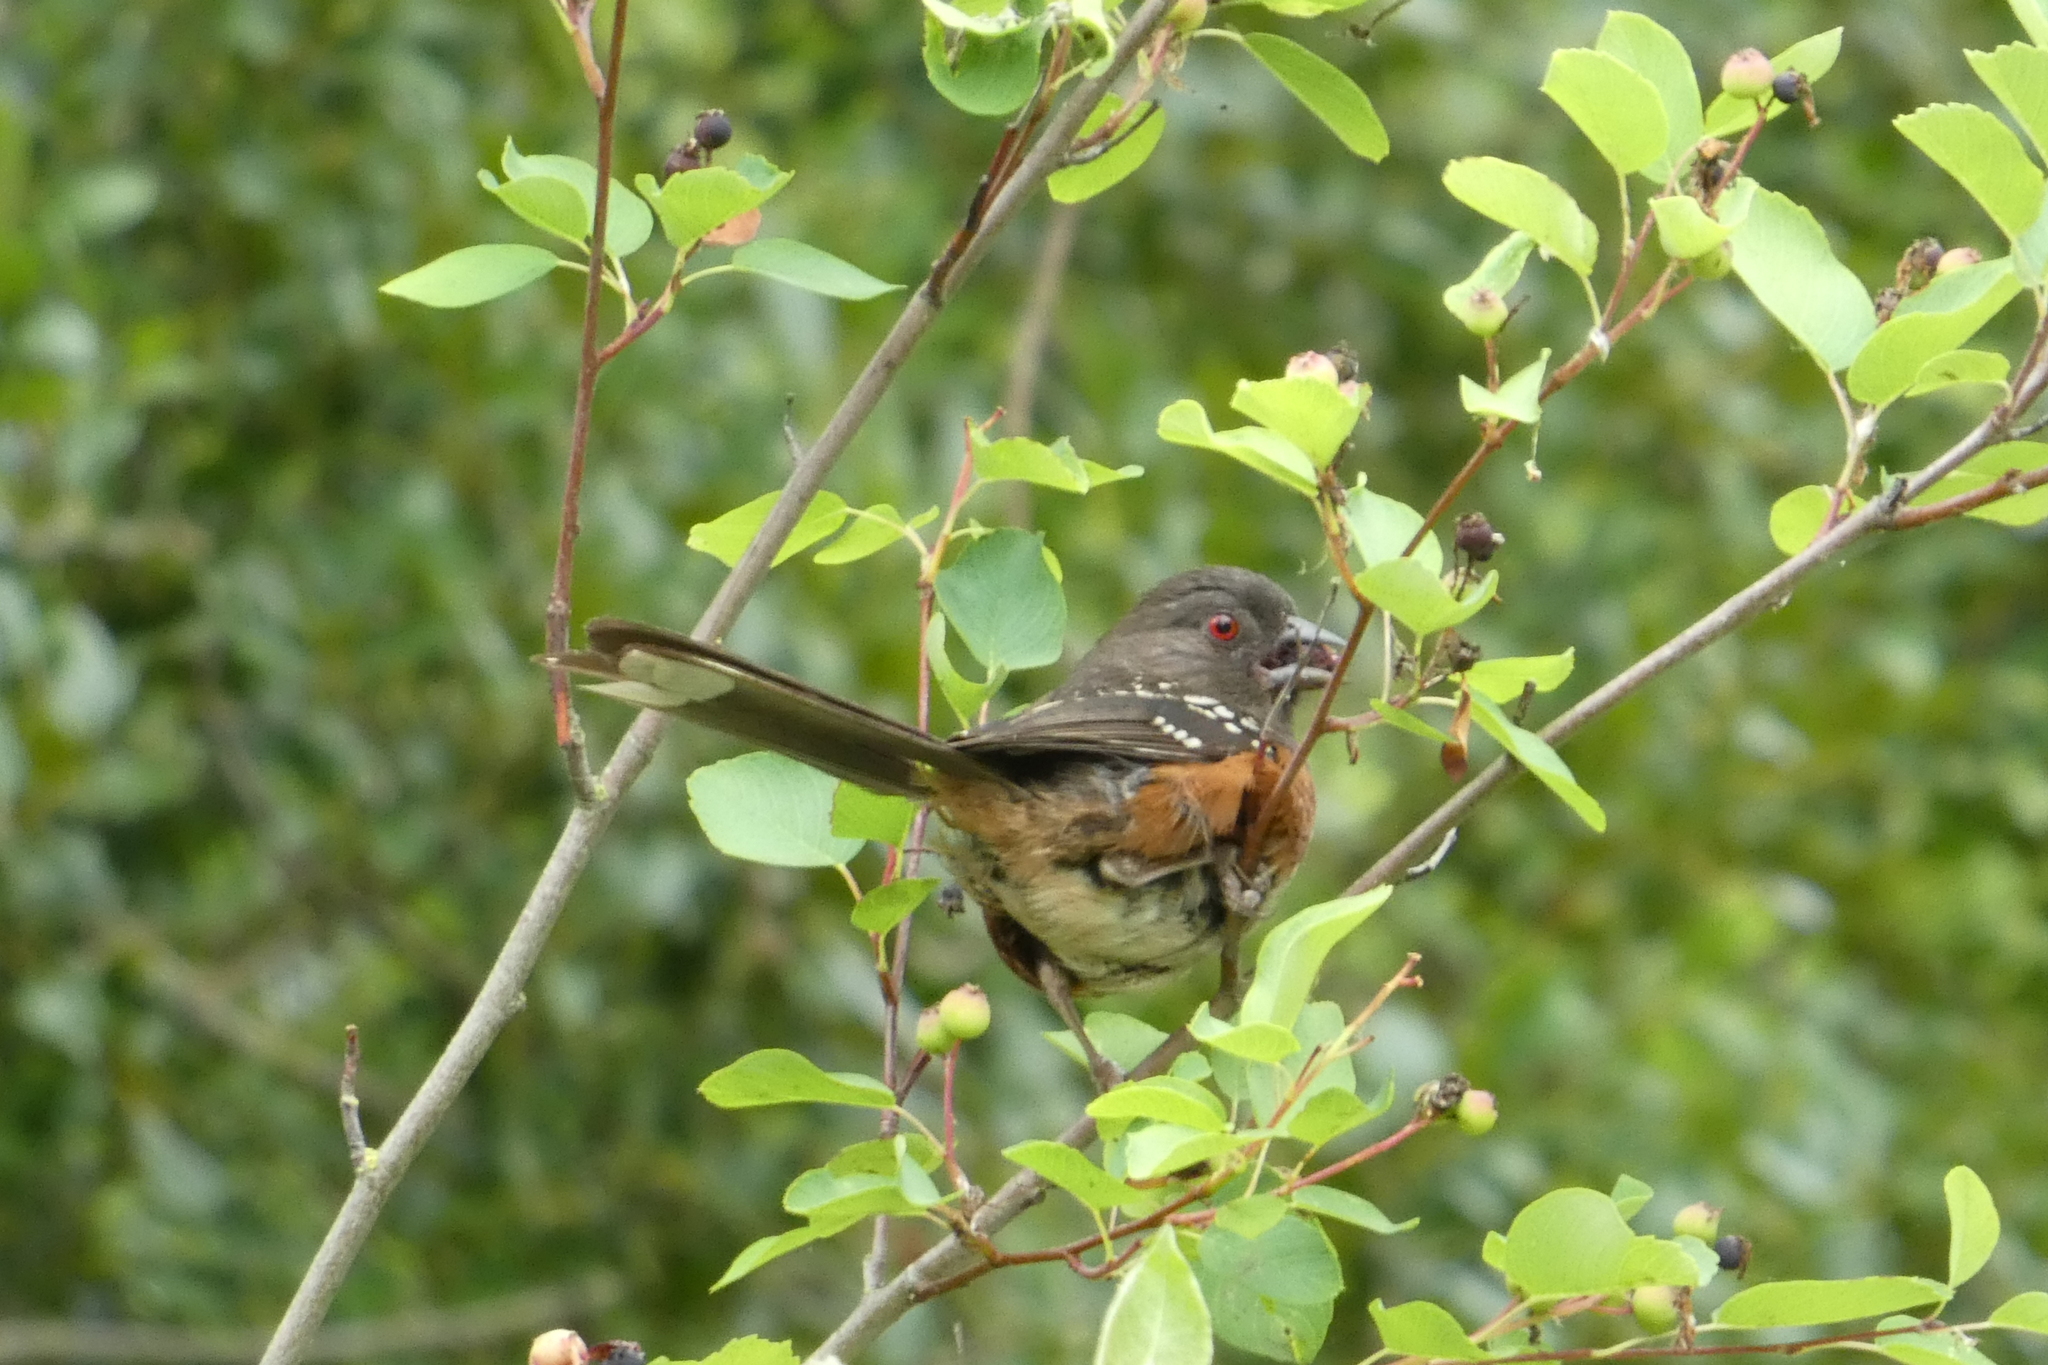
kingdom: Animalia
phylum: Chordata
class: Aves
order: Passeriformes
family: Passerellidae
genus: Pipilo
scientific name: Pipilo maculatus
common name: Spotted towhee
